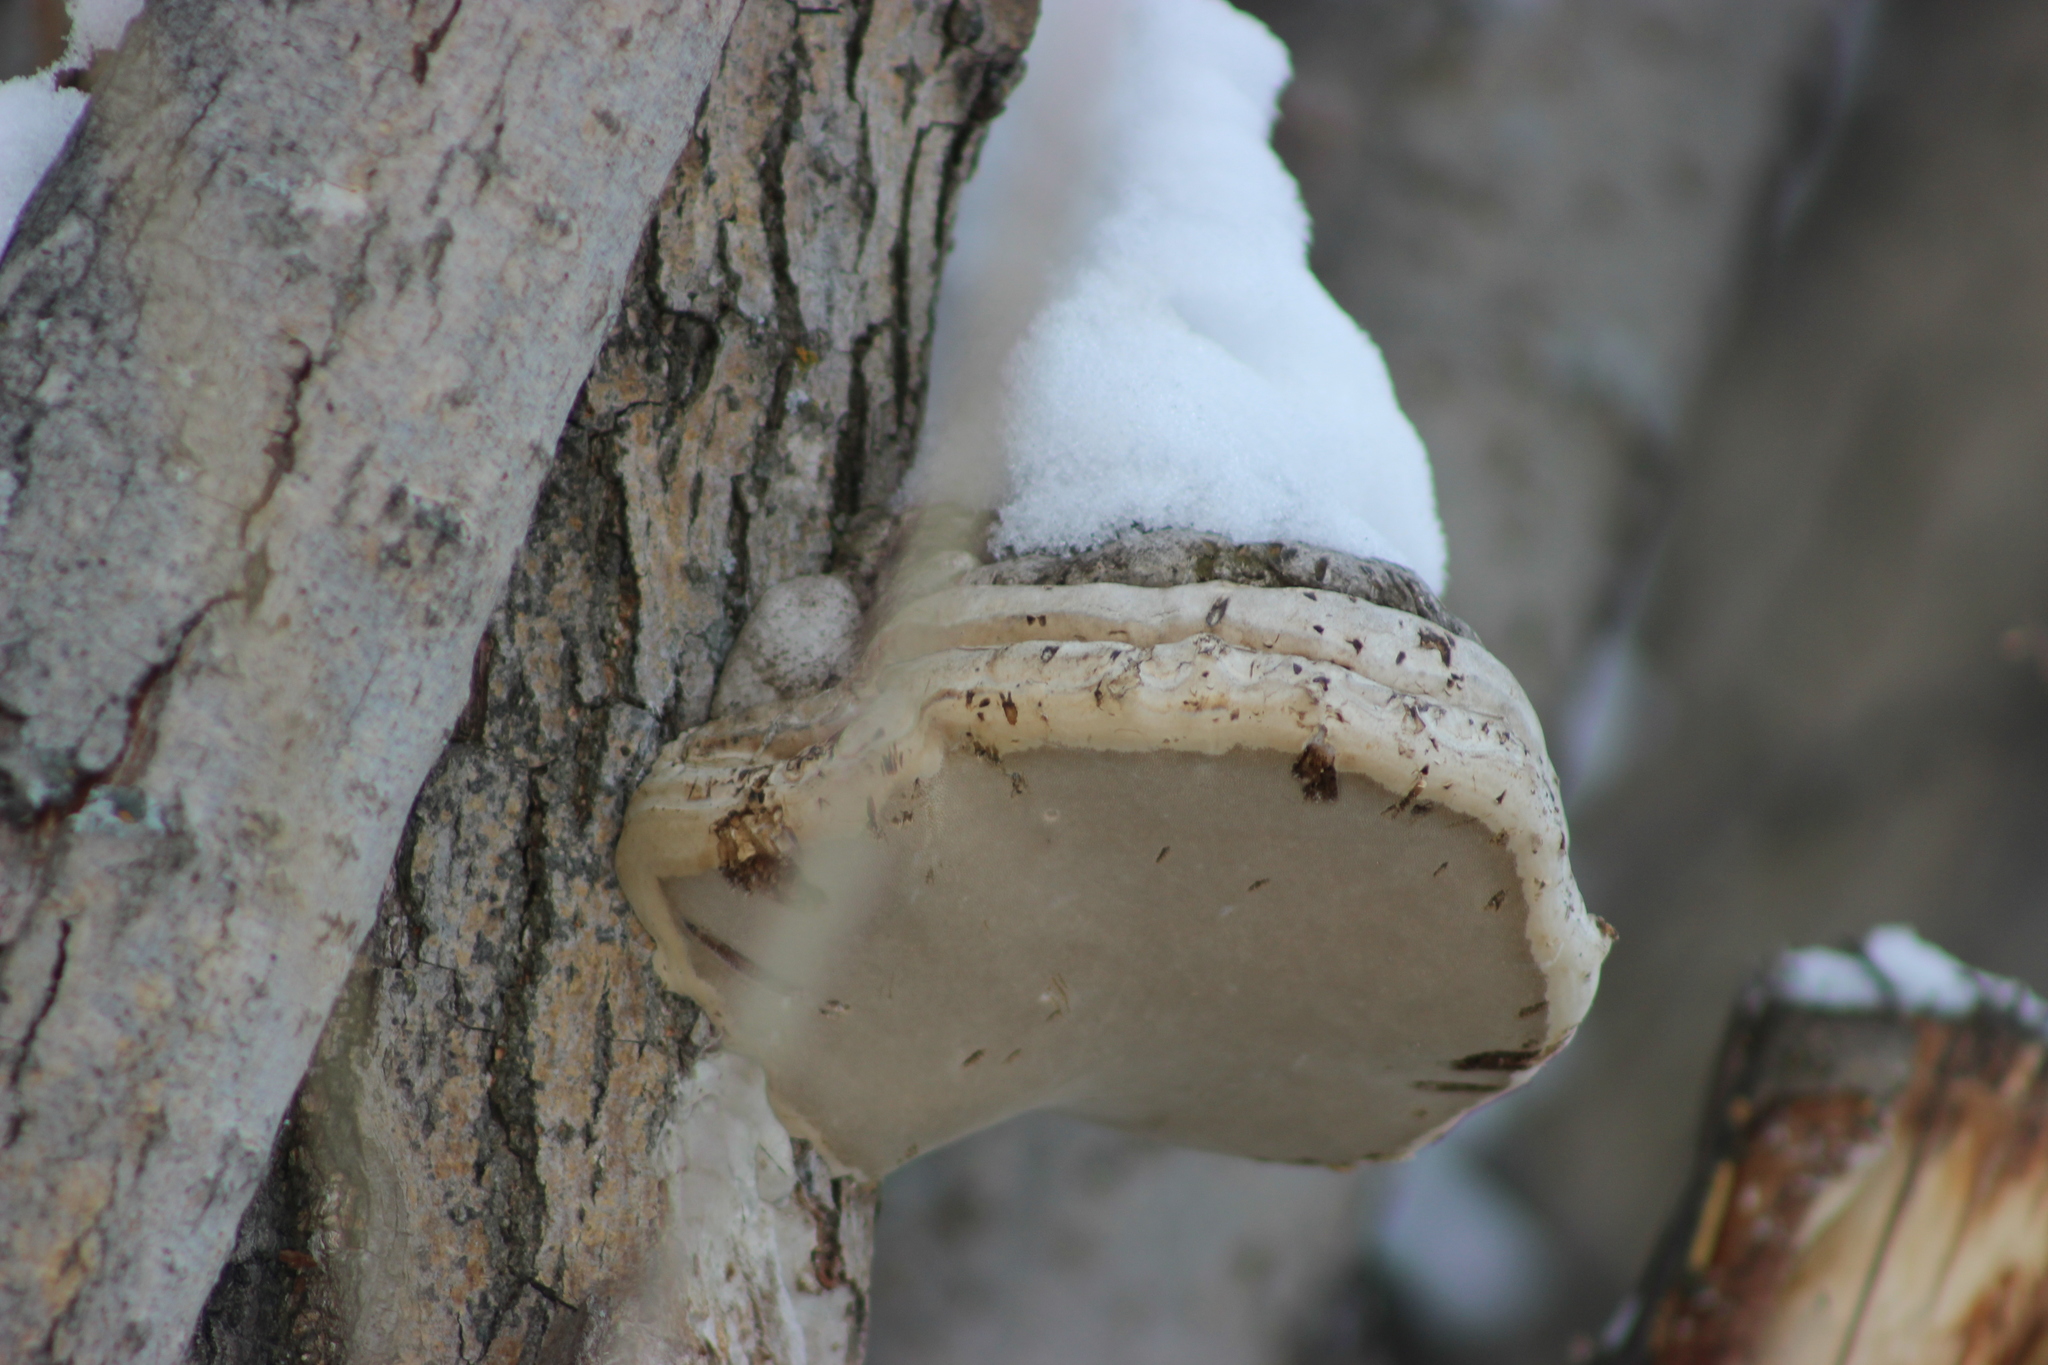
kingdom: Fungi
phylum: Basidiomycota
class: Agaricomycetes
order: Polyporales
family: Polyporaceae
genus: Fomes
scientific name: Fomes fomentarius
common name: Hoof fungus
